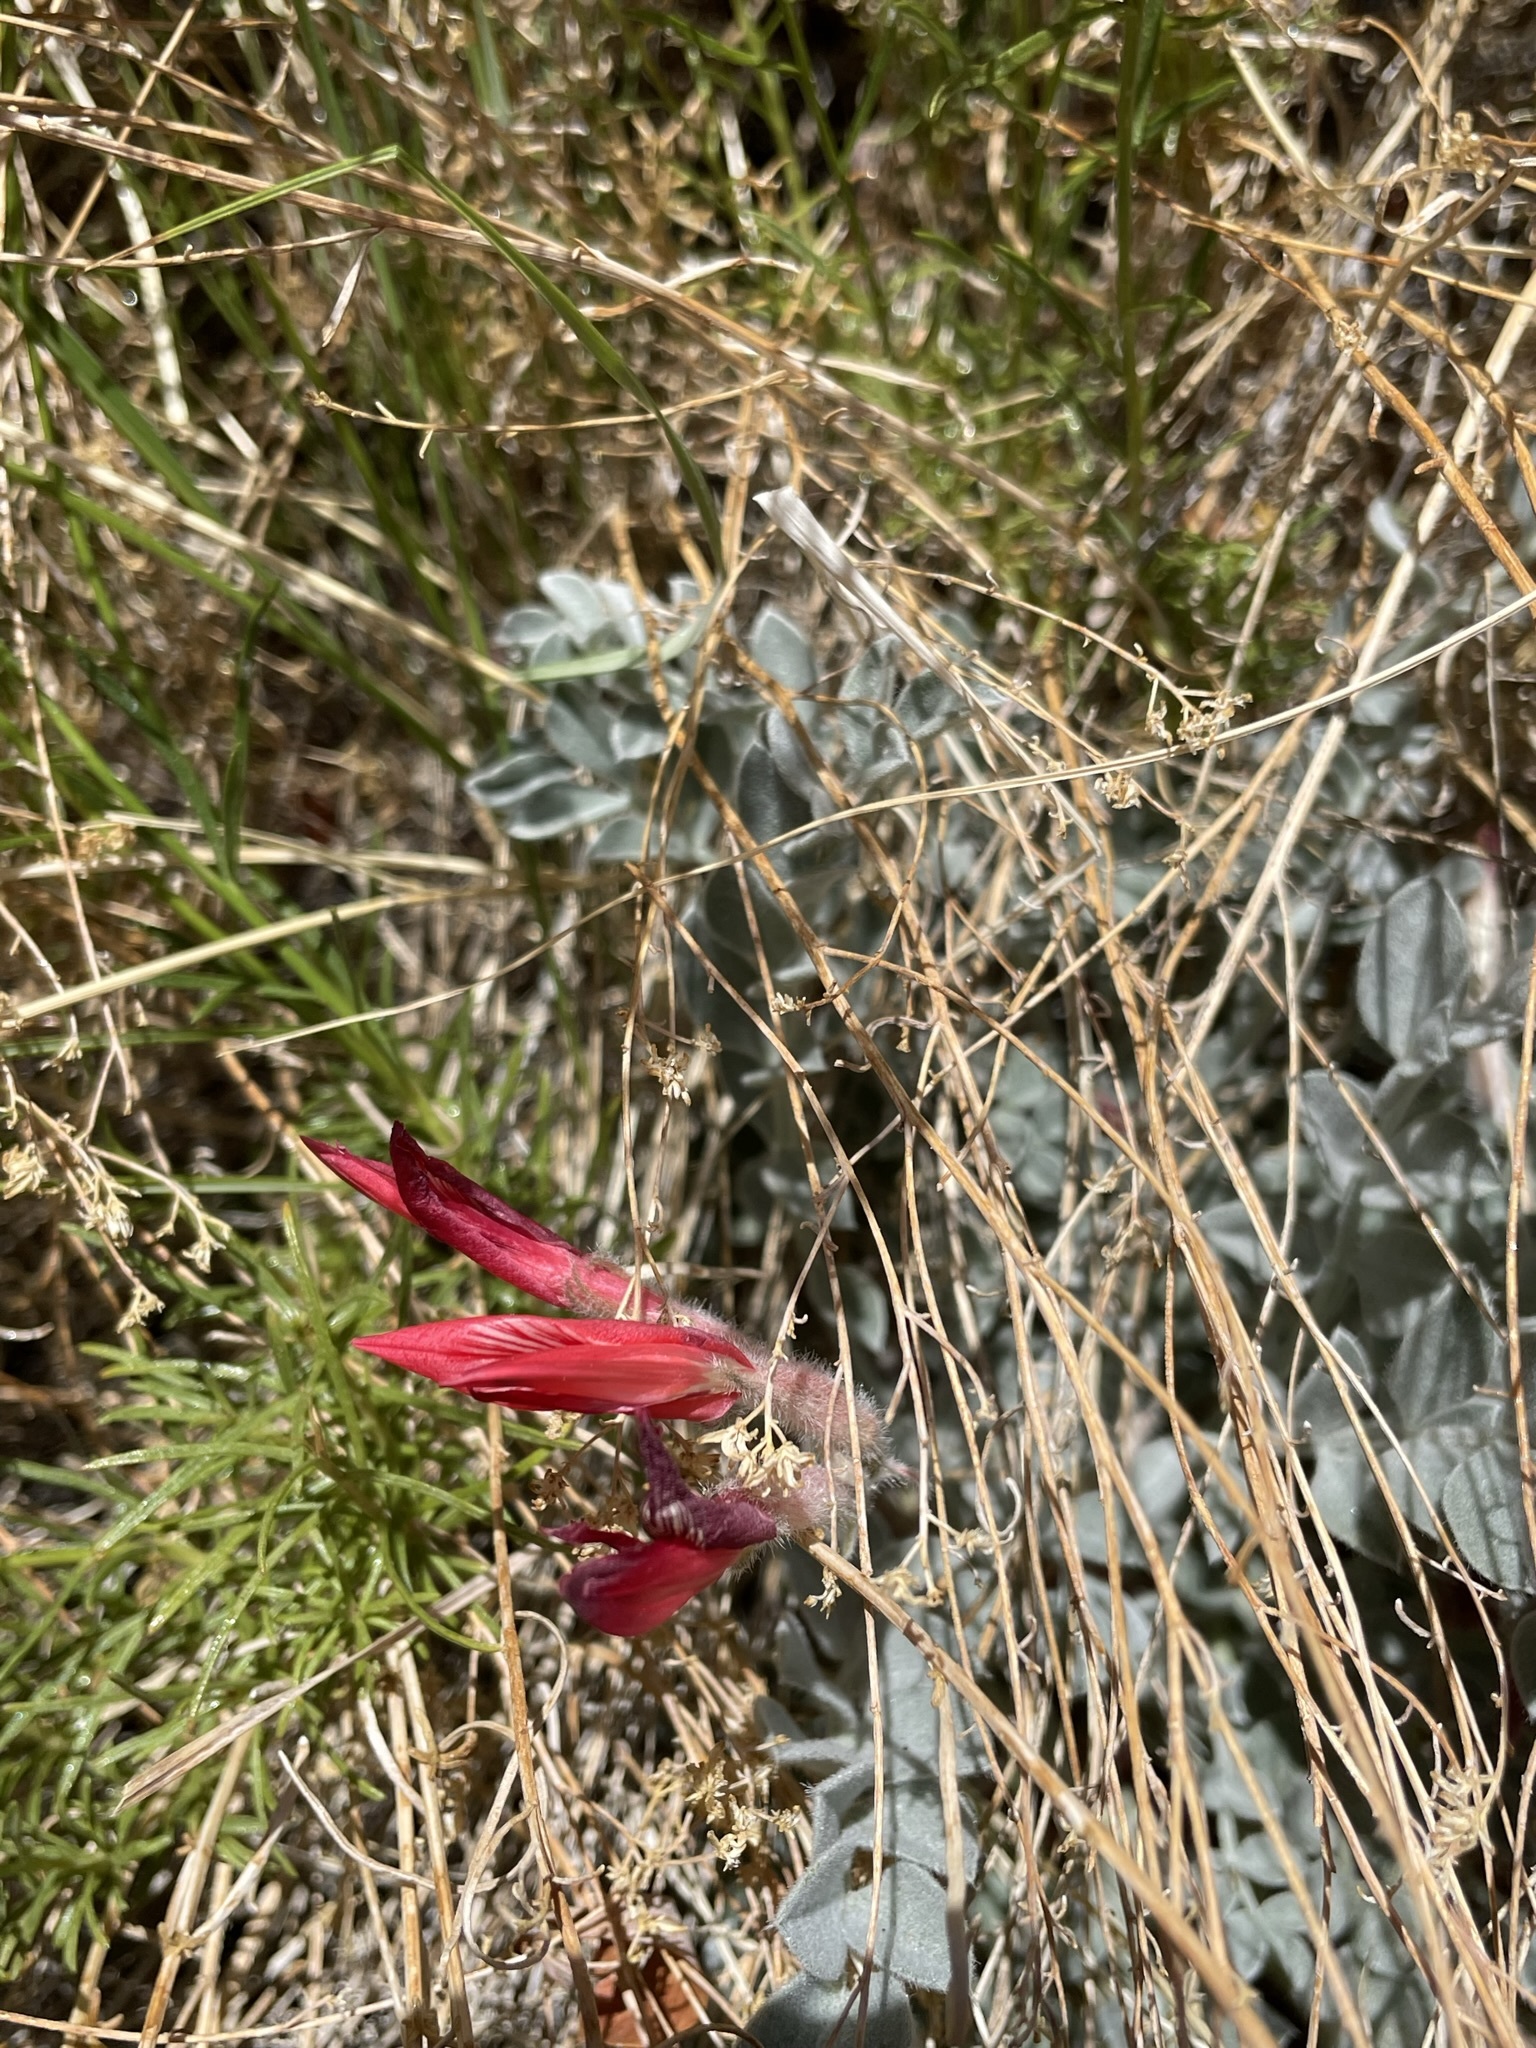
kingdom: Plantae
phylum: Tracheophyta
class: Magnoliopsida
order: Fabales
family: Fabaceae
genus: Astragalus
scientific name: Astragalus coccineus
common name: Scarlet milk-vetch
